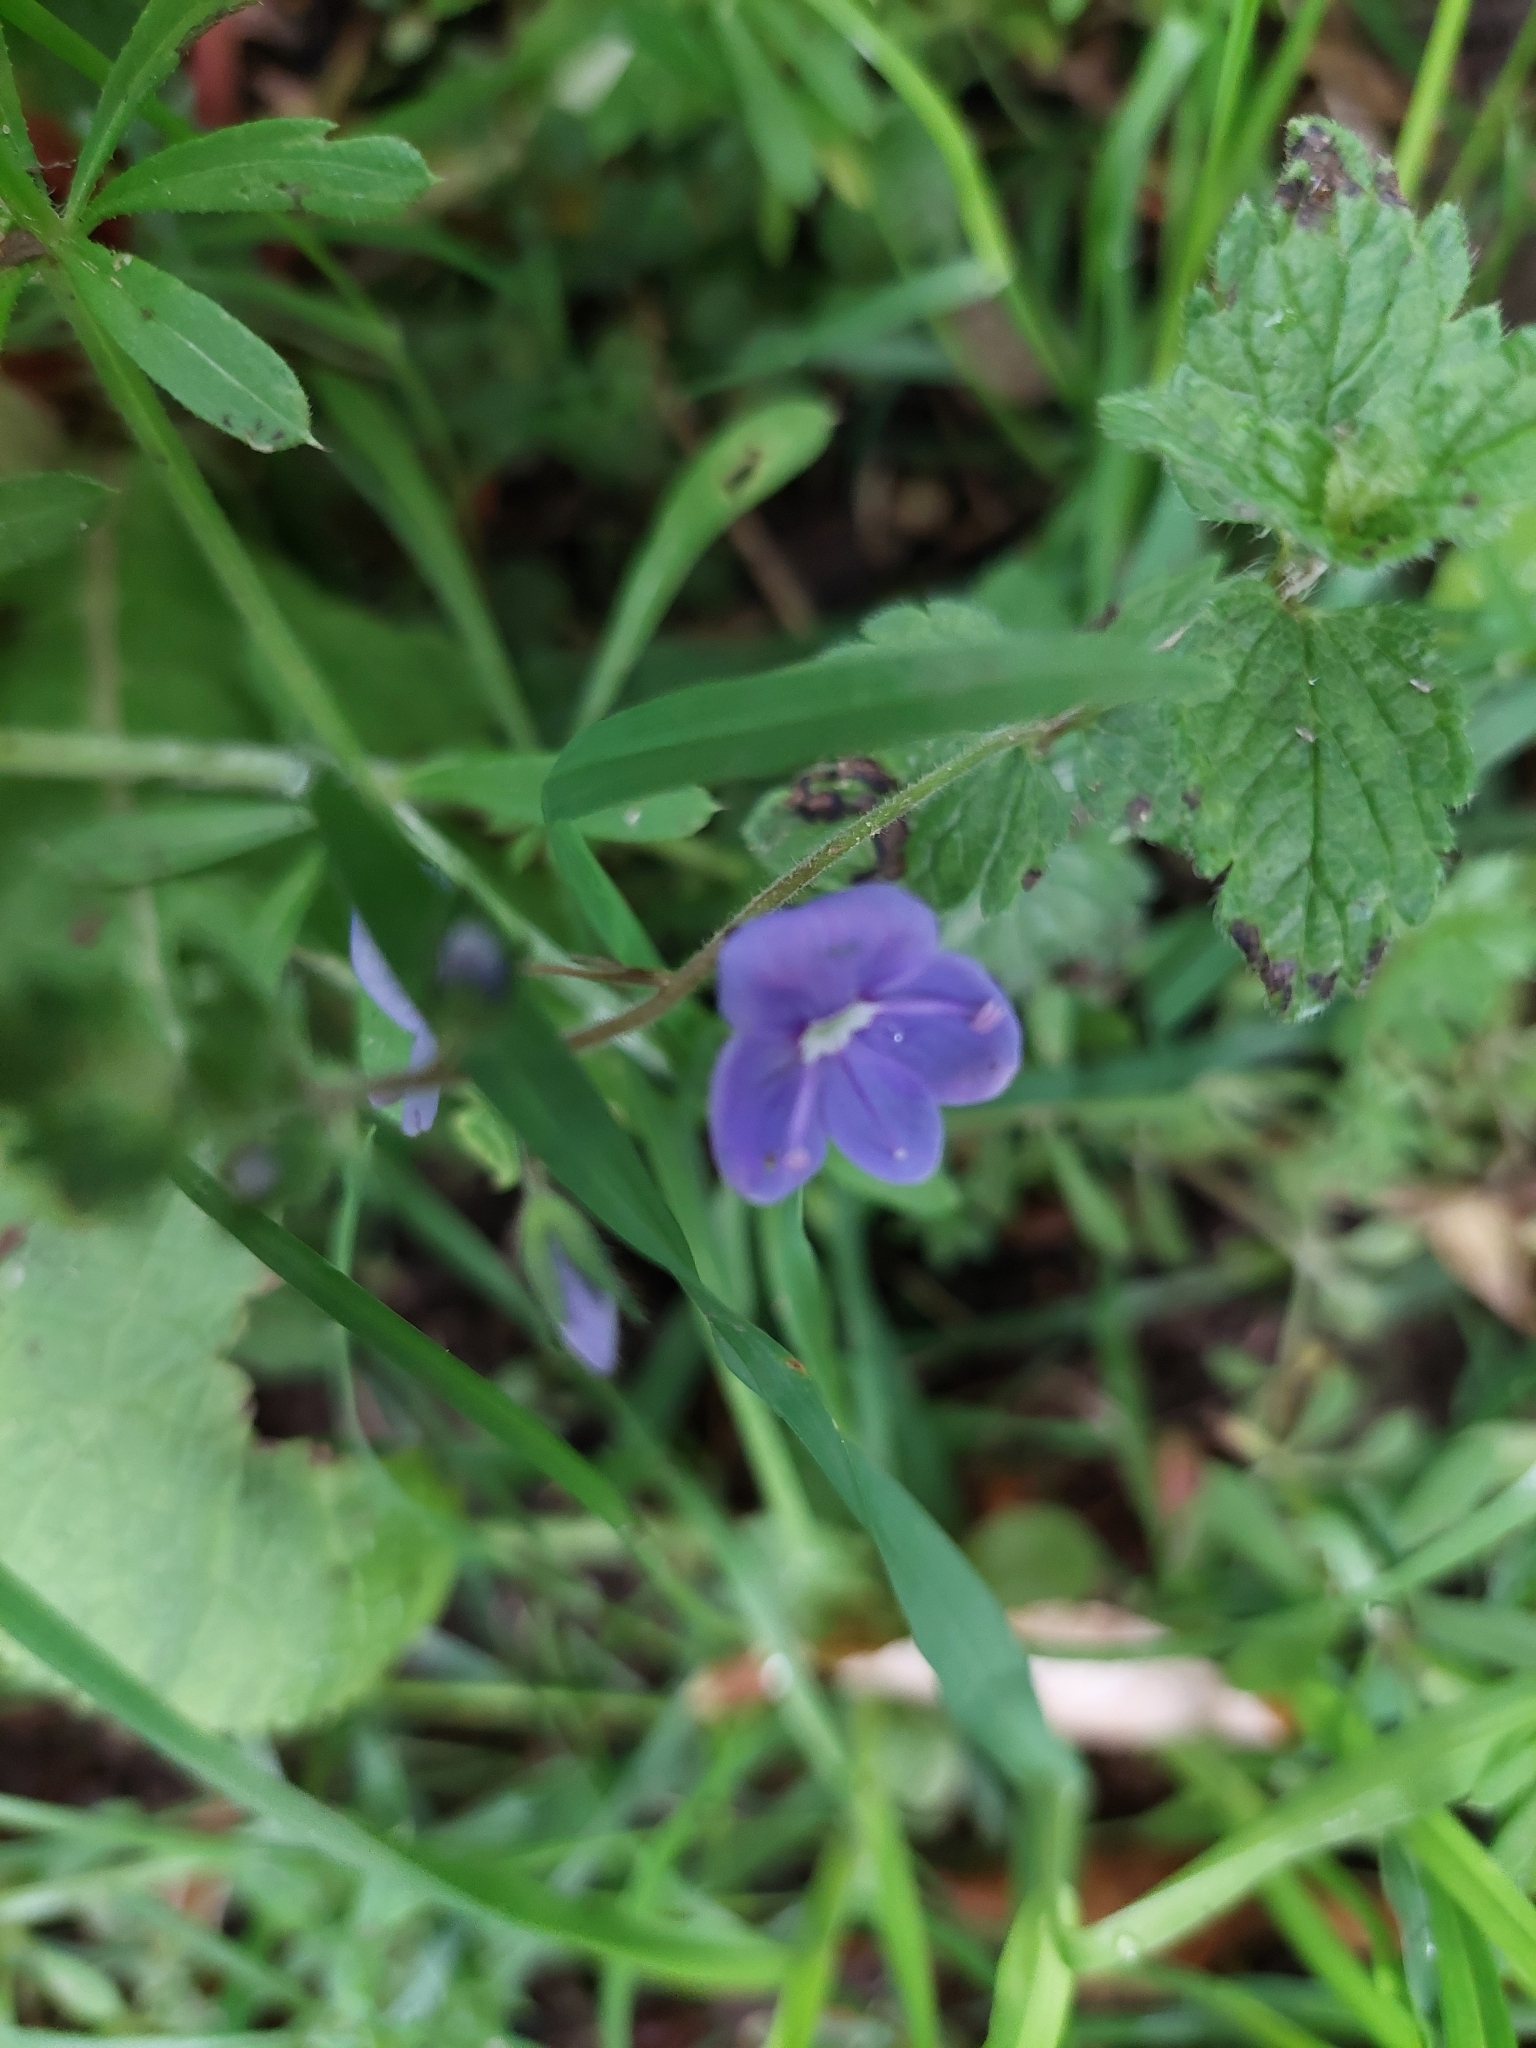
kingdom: Plantae
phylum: Tracheophyta
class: Magnoliopsida
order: Lamiales
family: Plantaginaceae
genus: Veronica
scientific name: Veronica chamaedrys
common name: Germander speedwell
